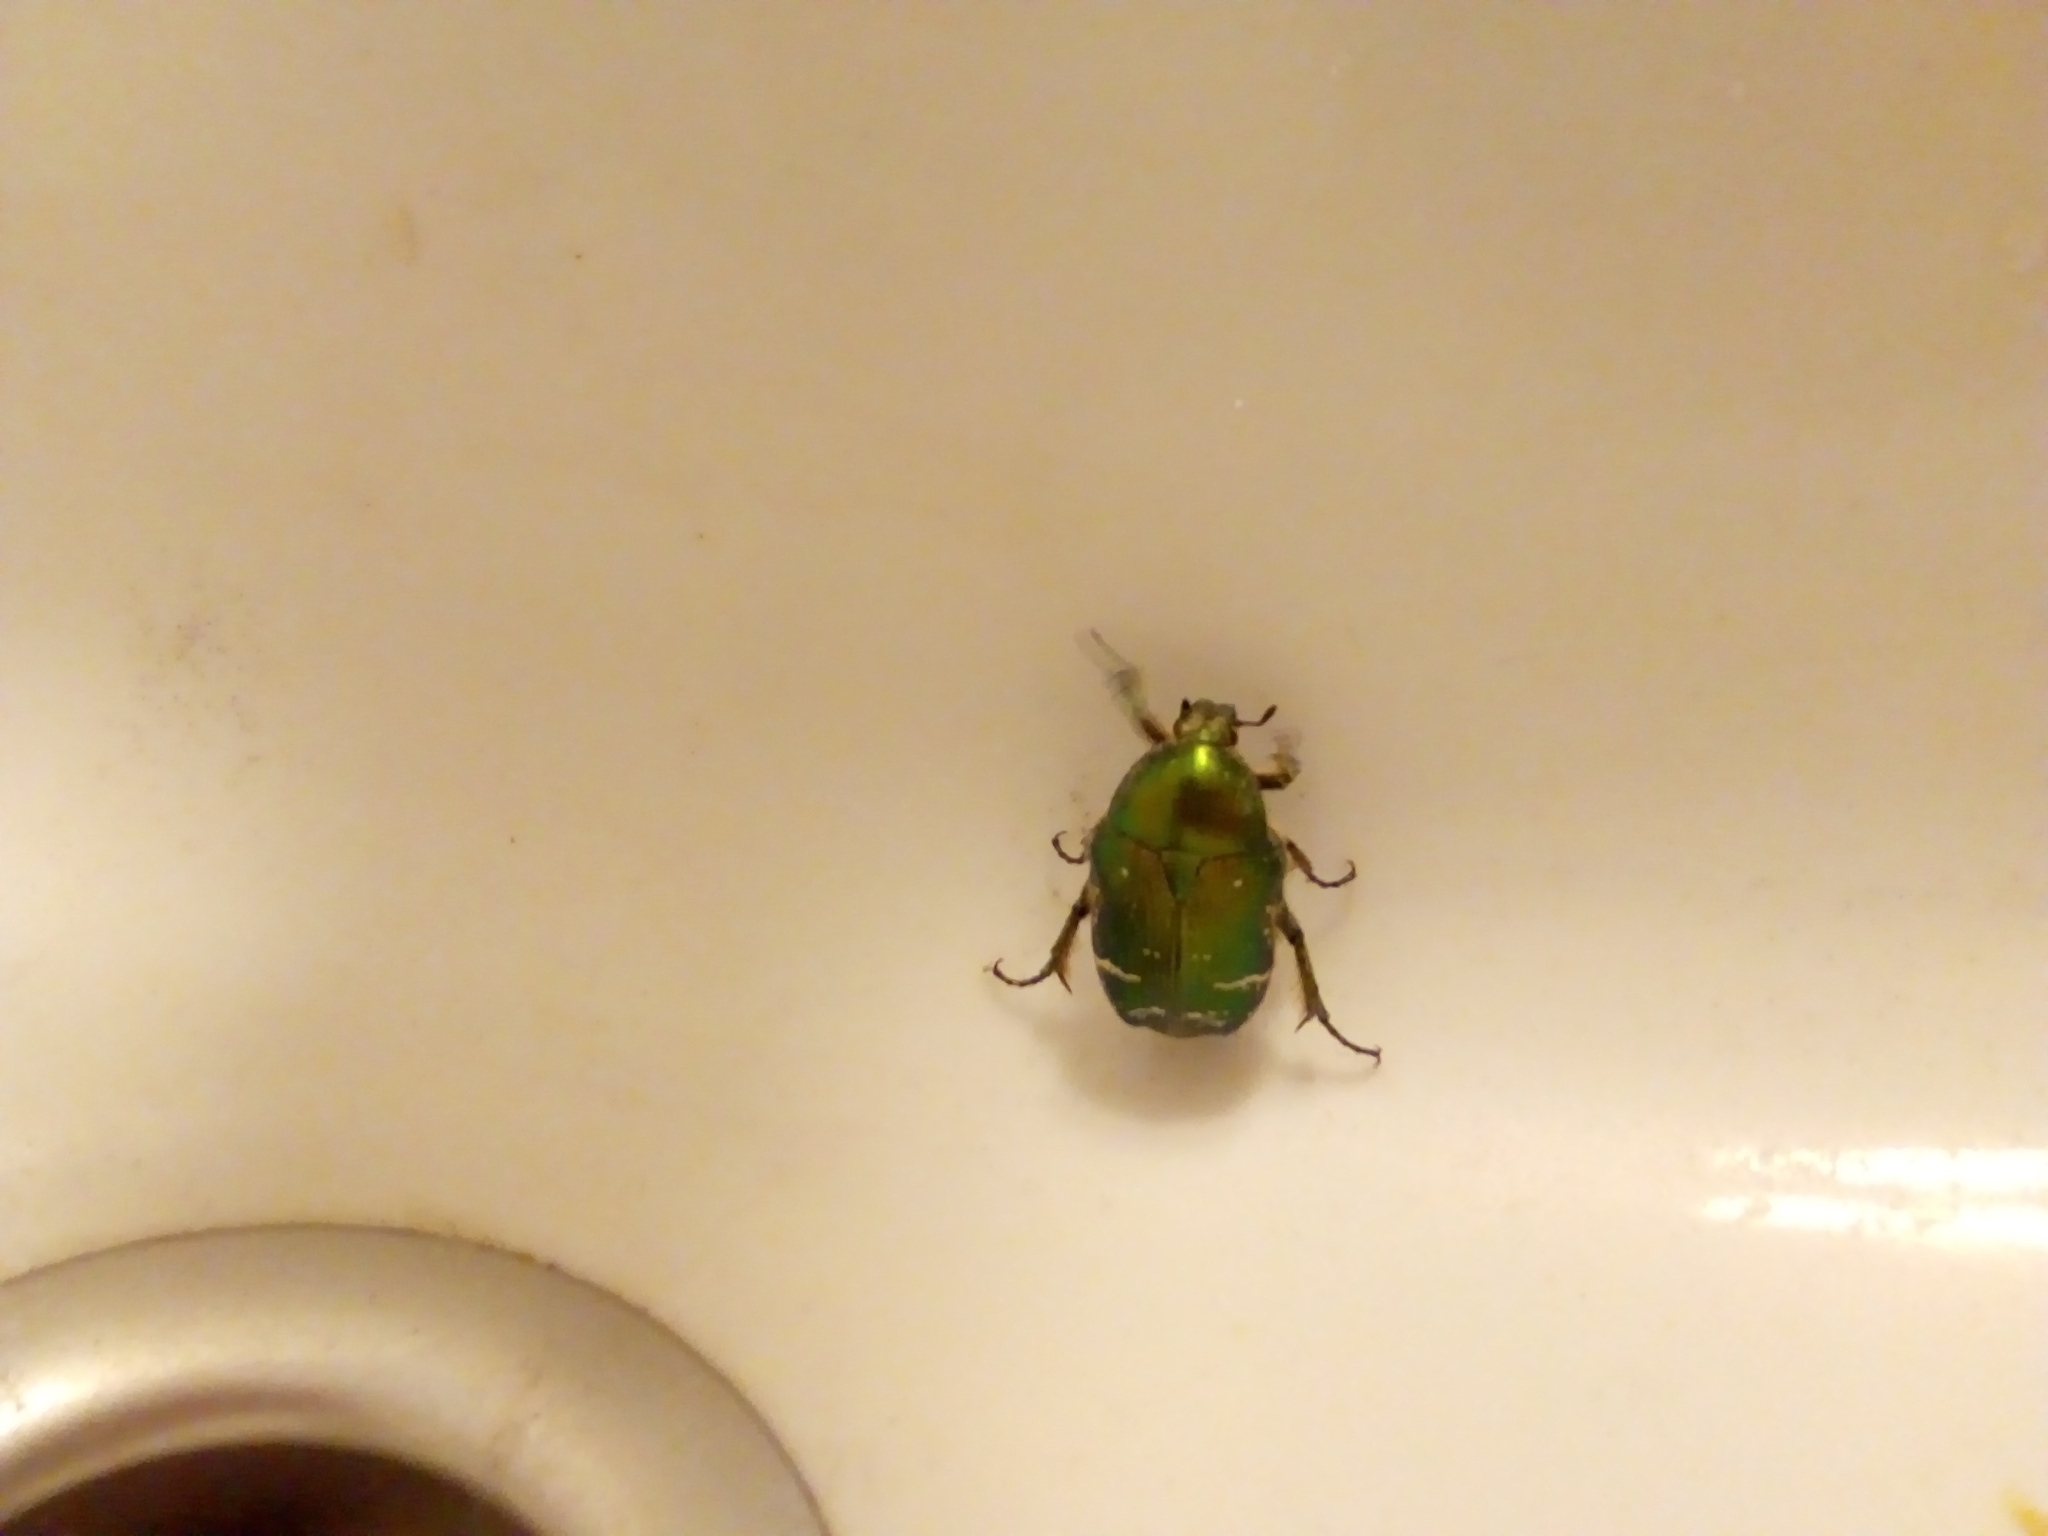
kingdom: Animalia
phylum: Arthropoda
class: Insecta
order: Coleoptera
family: Scarabaeidae
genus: Cetonia
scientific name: Cetonia aurata
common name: Rose chafer
